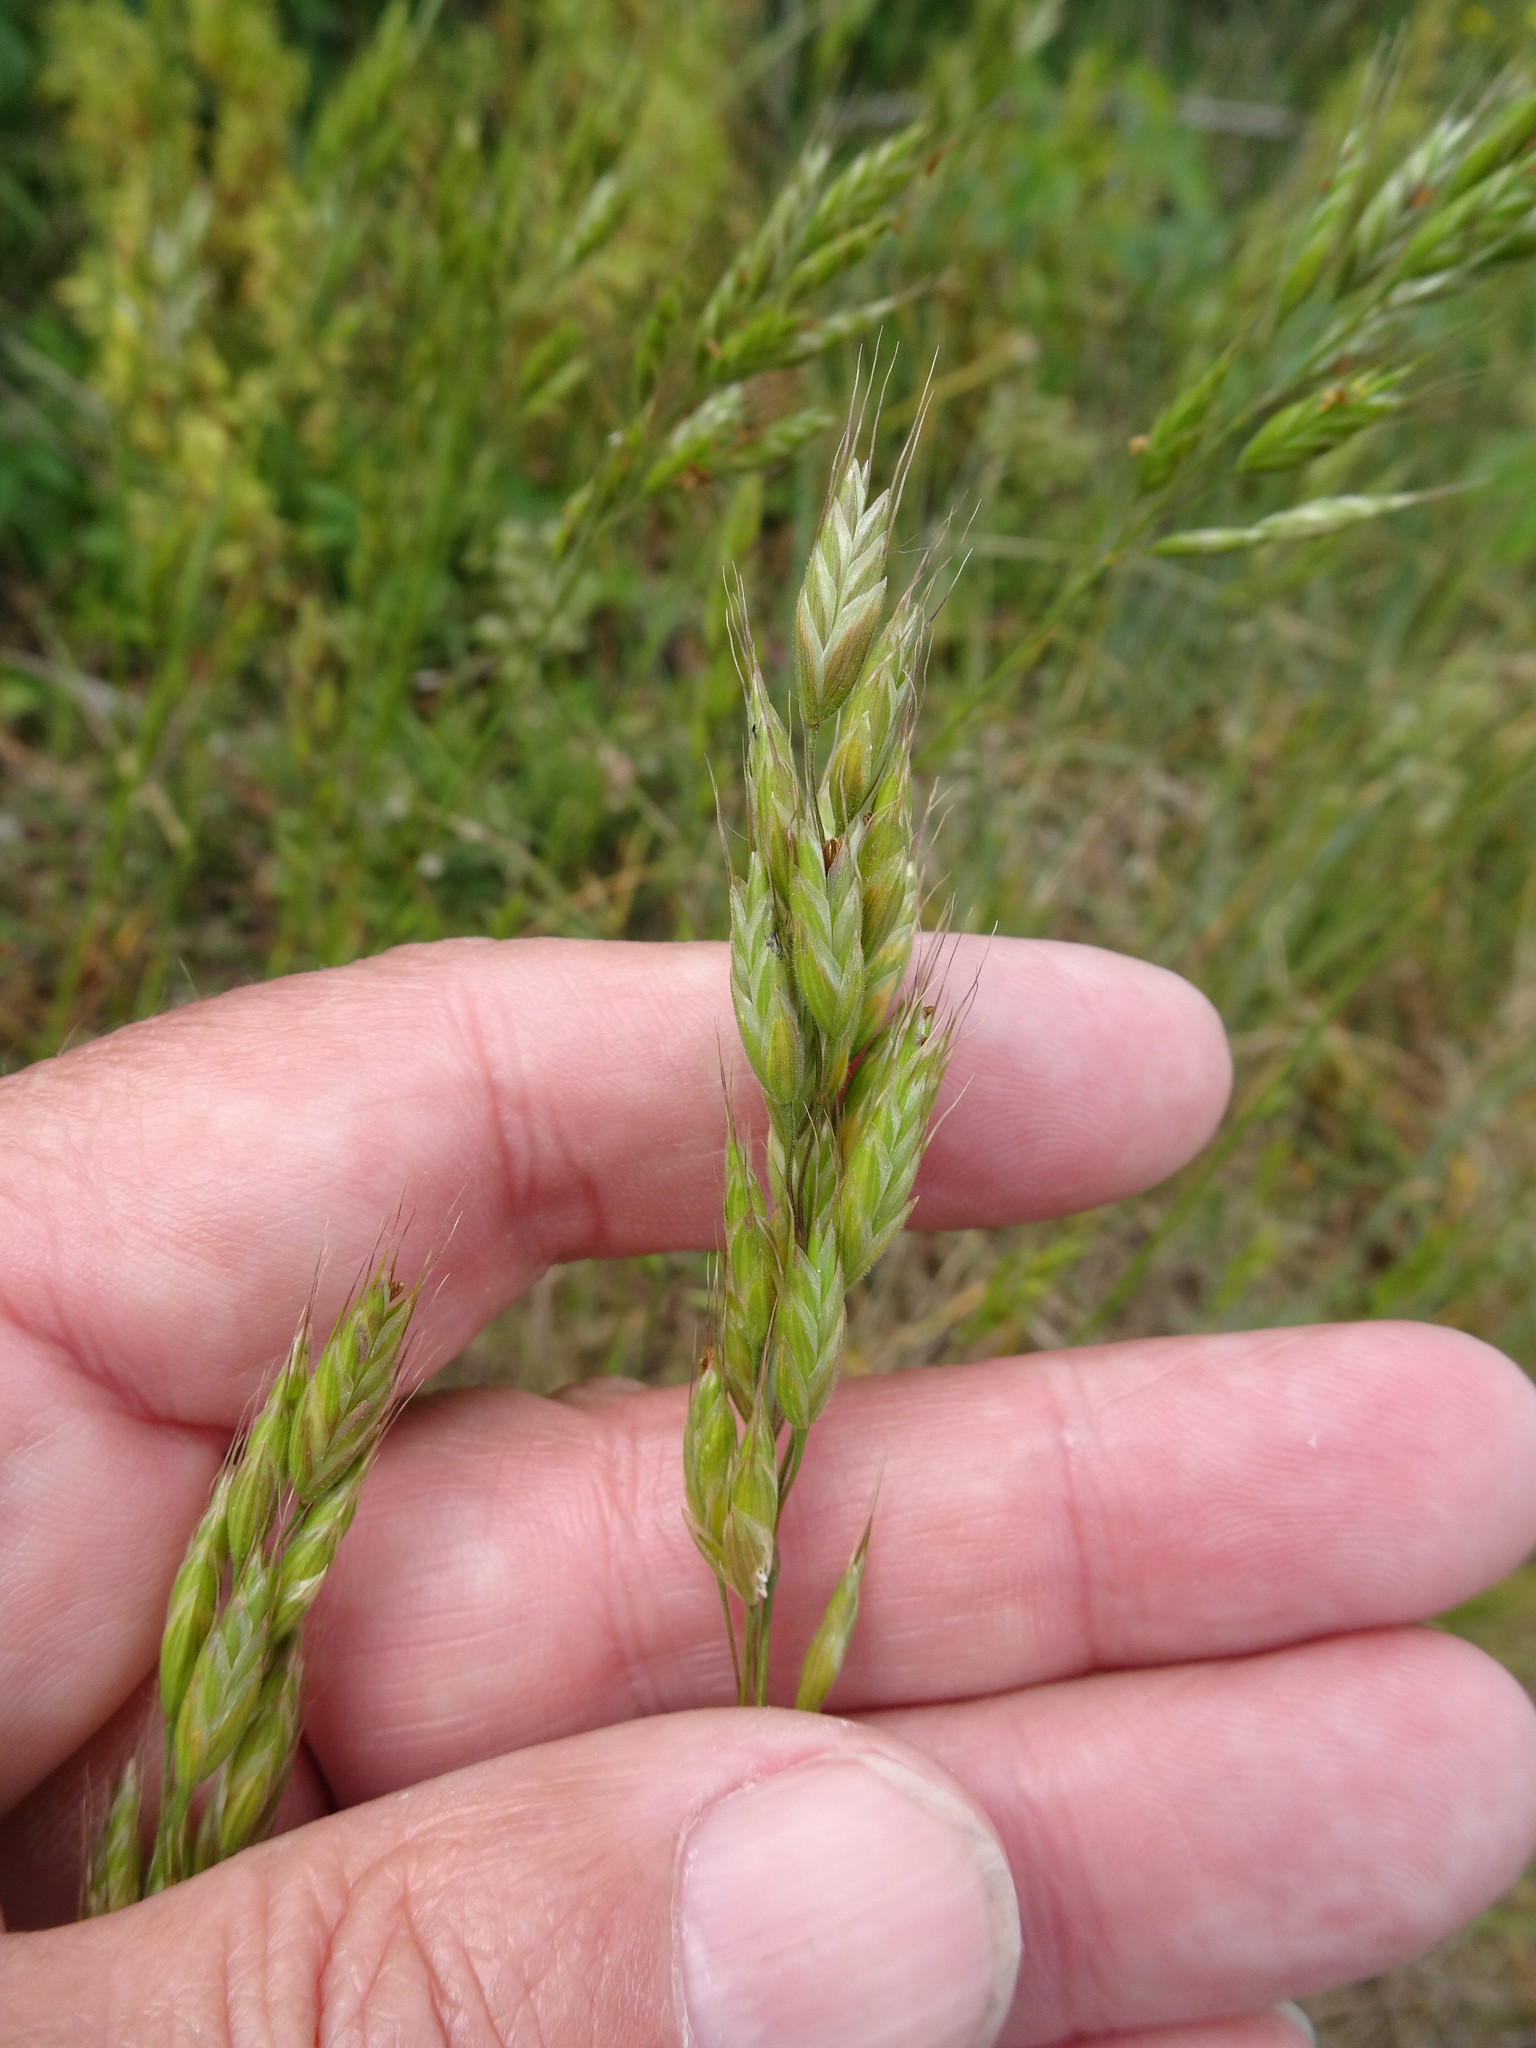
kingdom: Plantae
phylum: Tracheophyta
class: Liliopsida
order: Poales
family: Poaceae
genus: Bromus
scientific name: Bromus hordeaceus
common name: Soft brome
